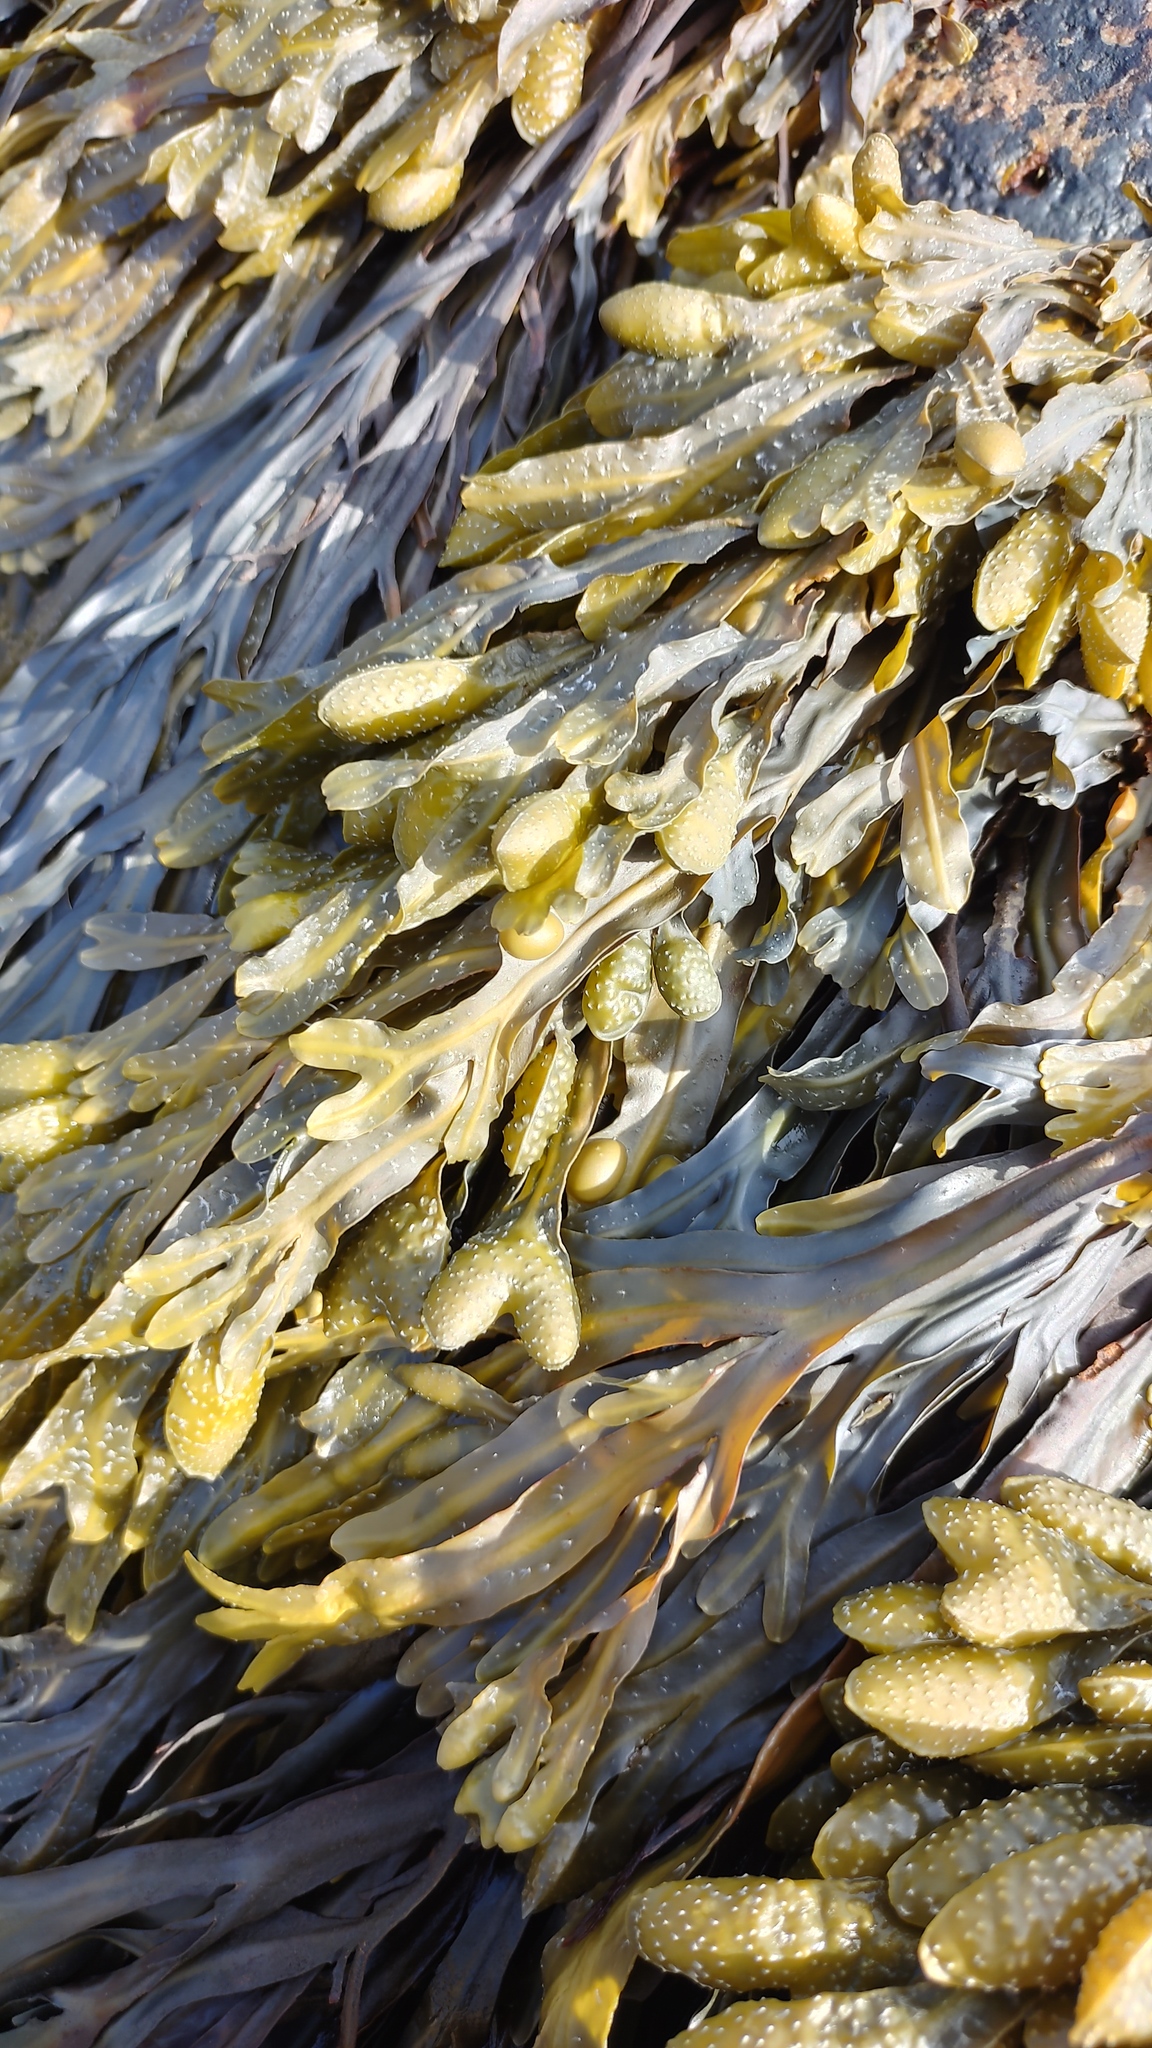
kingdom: Chromista
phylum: Ochrophyta
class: Phaeophyceae
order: Fucales
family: Fucaceae
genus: Fucus
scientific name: Fucus vesiculosus
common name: Bladder wrack
